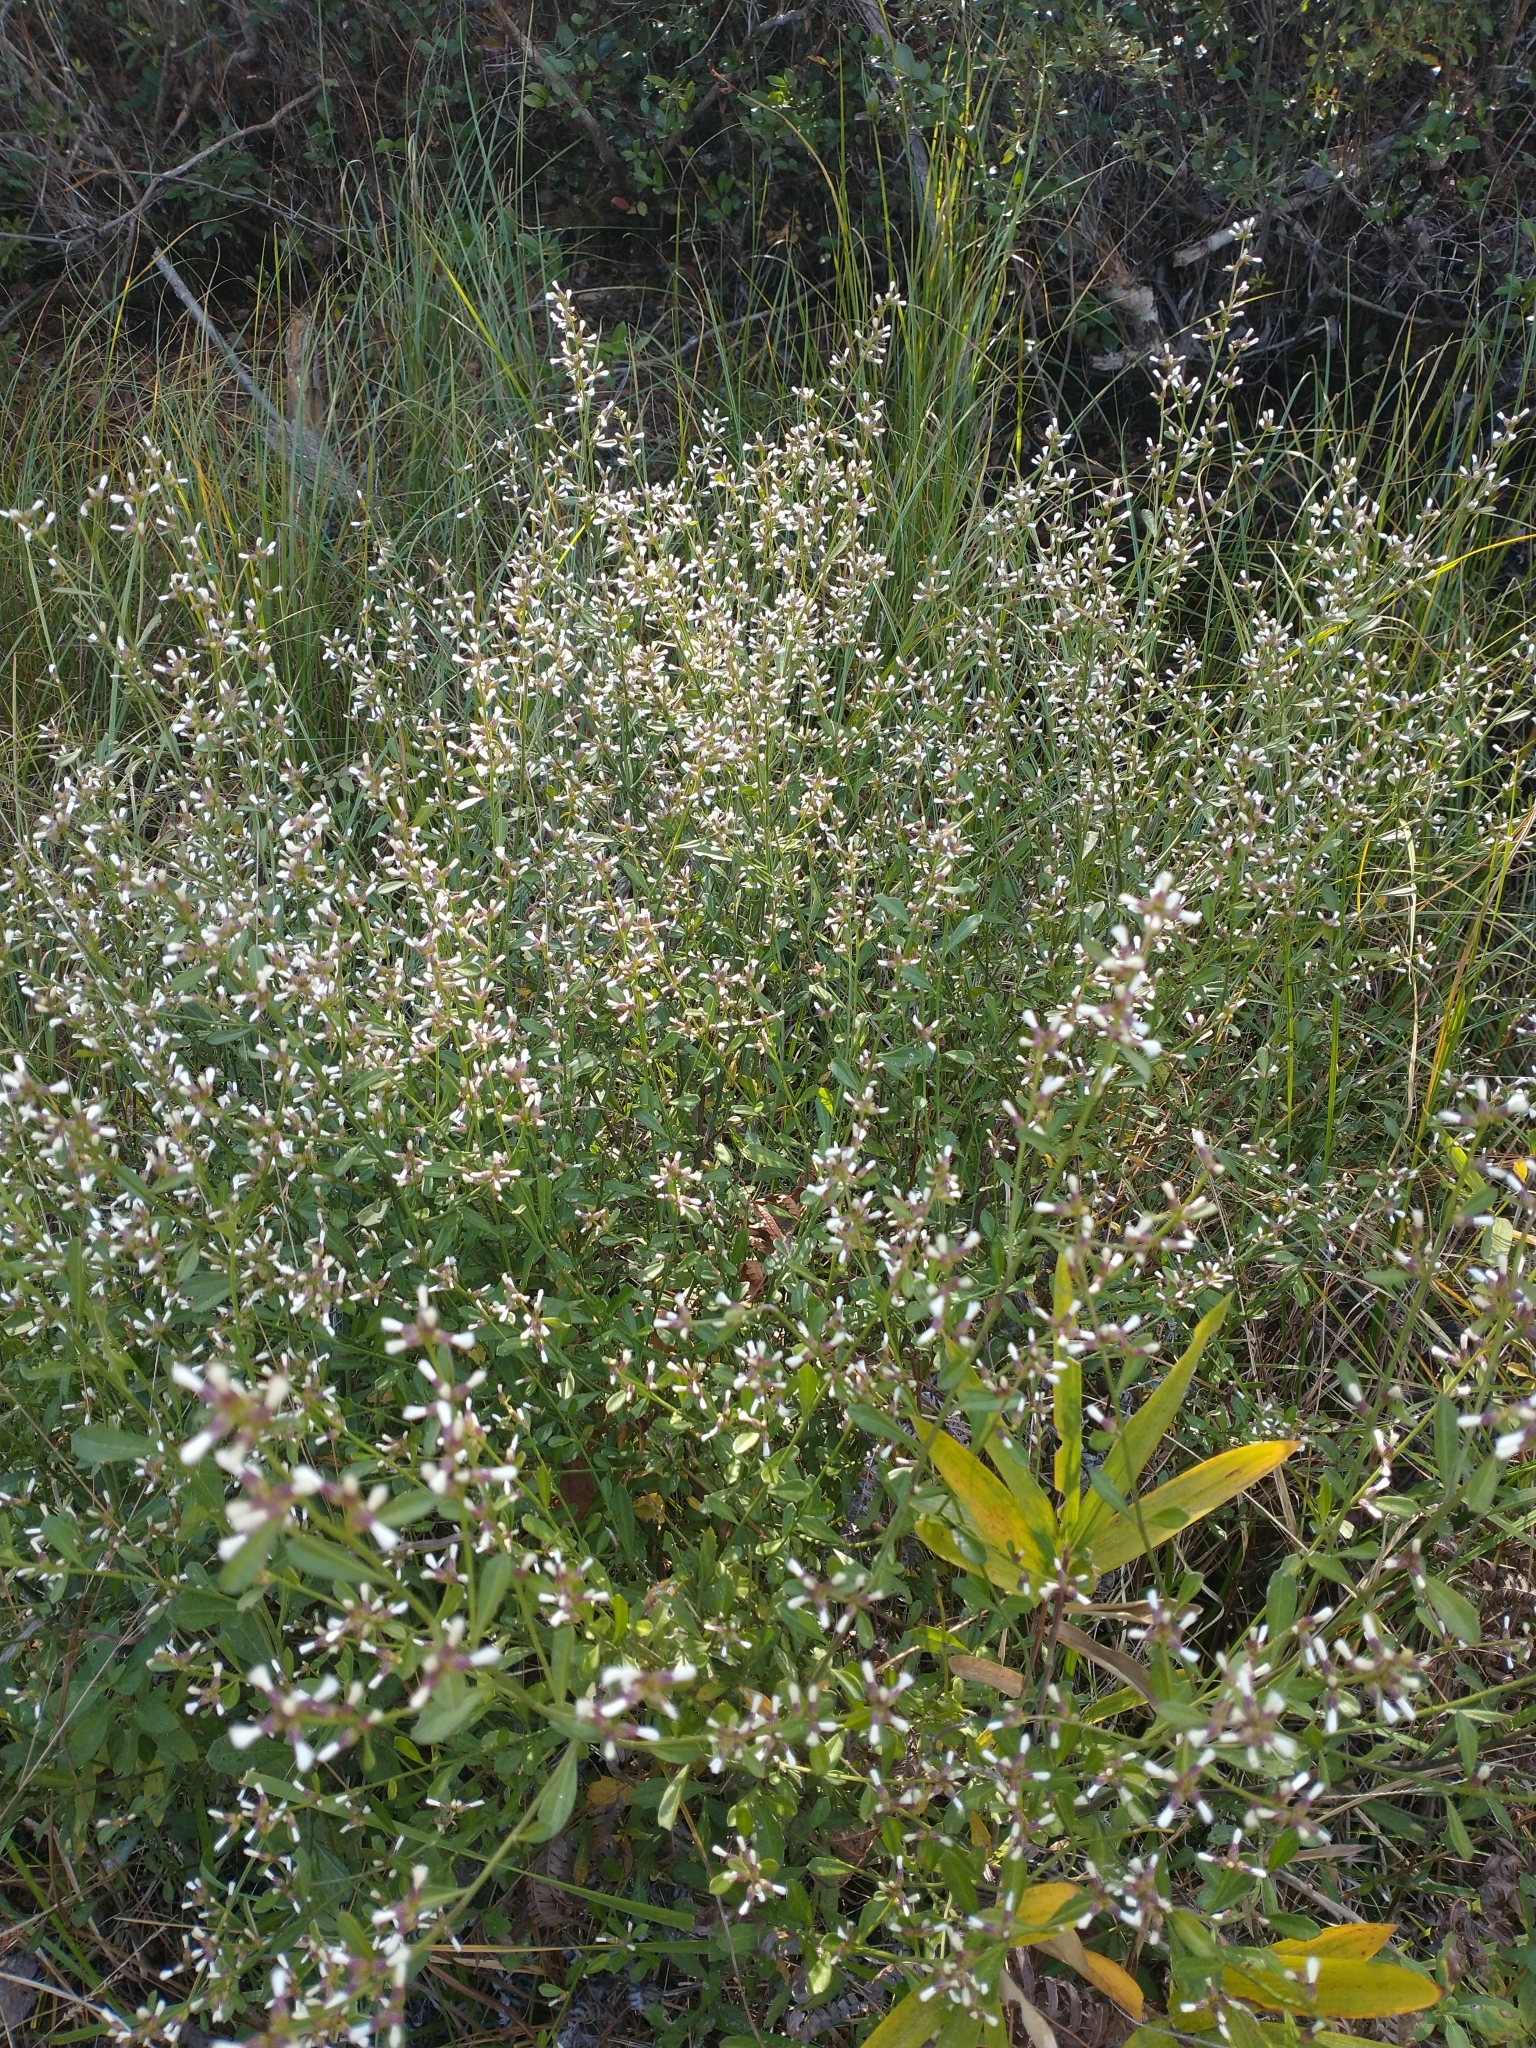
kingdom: Plantae
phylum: Tracheophyta
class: Magnoliopsida
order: Asterales
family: Asteraceae
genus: Baccharis
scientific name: Baccharis halimifolia
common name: Eastern baccharis
